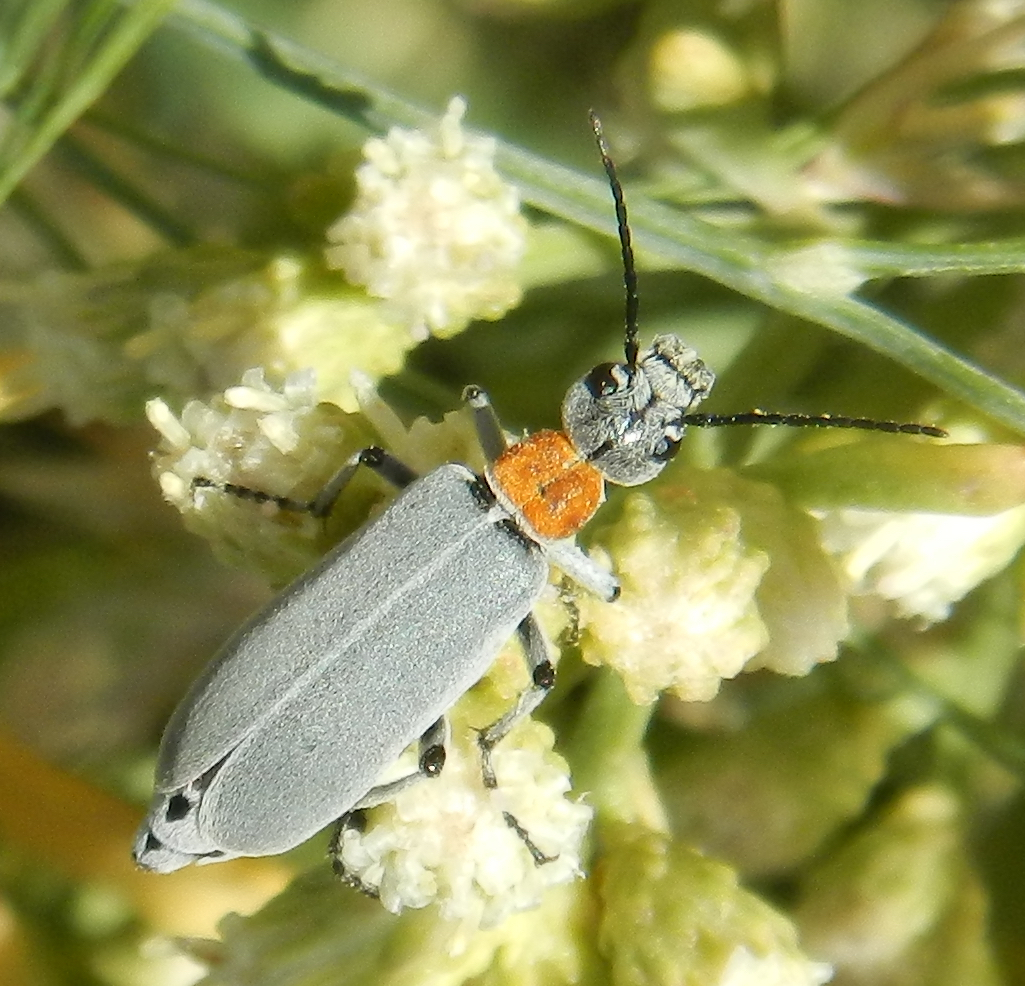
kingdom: Animalia
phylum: Arthropoda
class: Insecta
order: Coleoptera
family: Meloidae
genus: Epicauta
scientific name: Epicauta wheeleri
